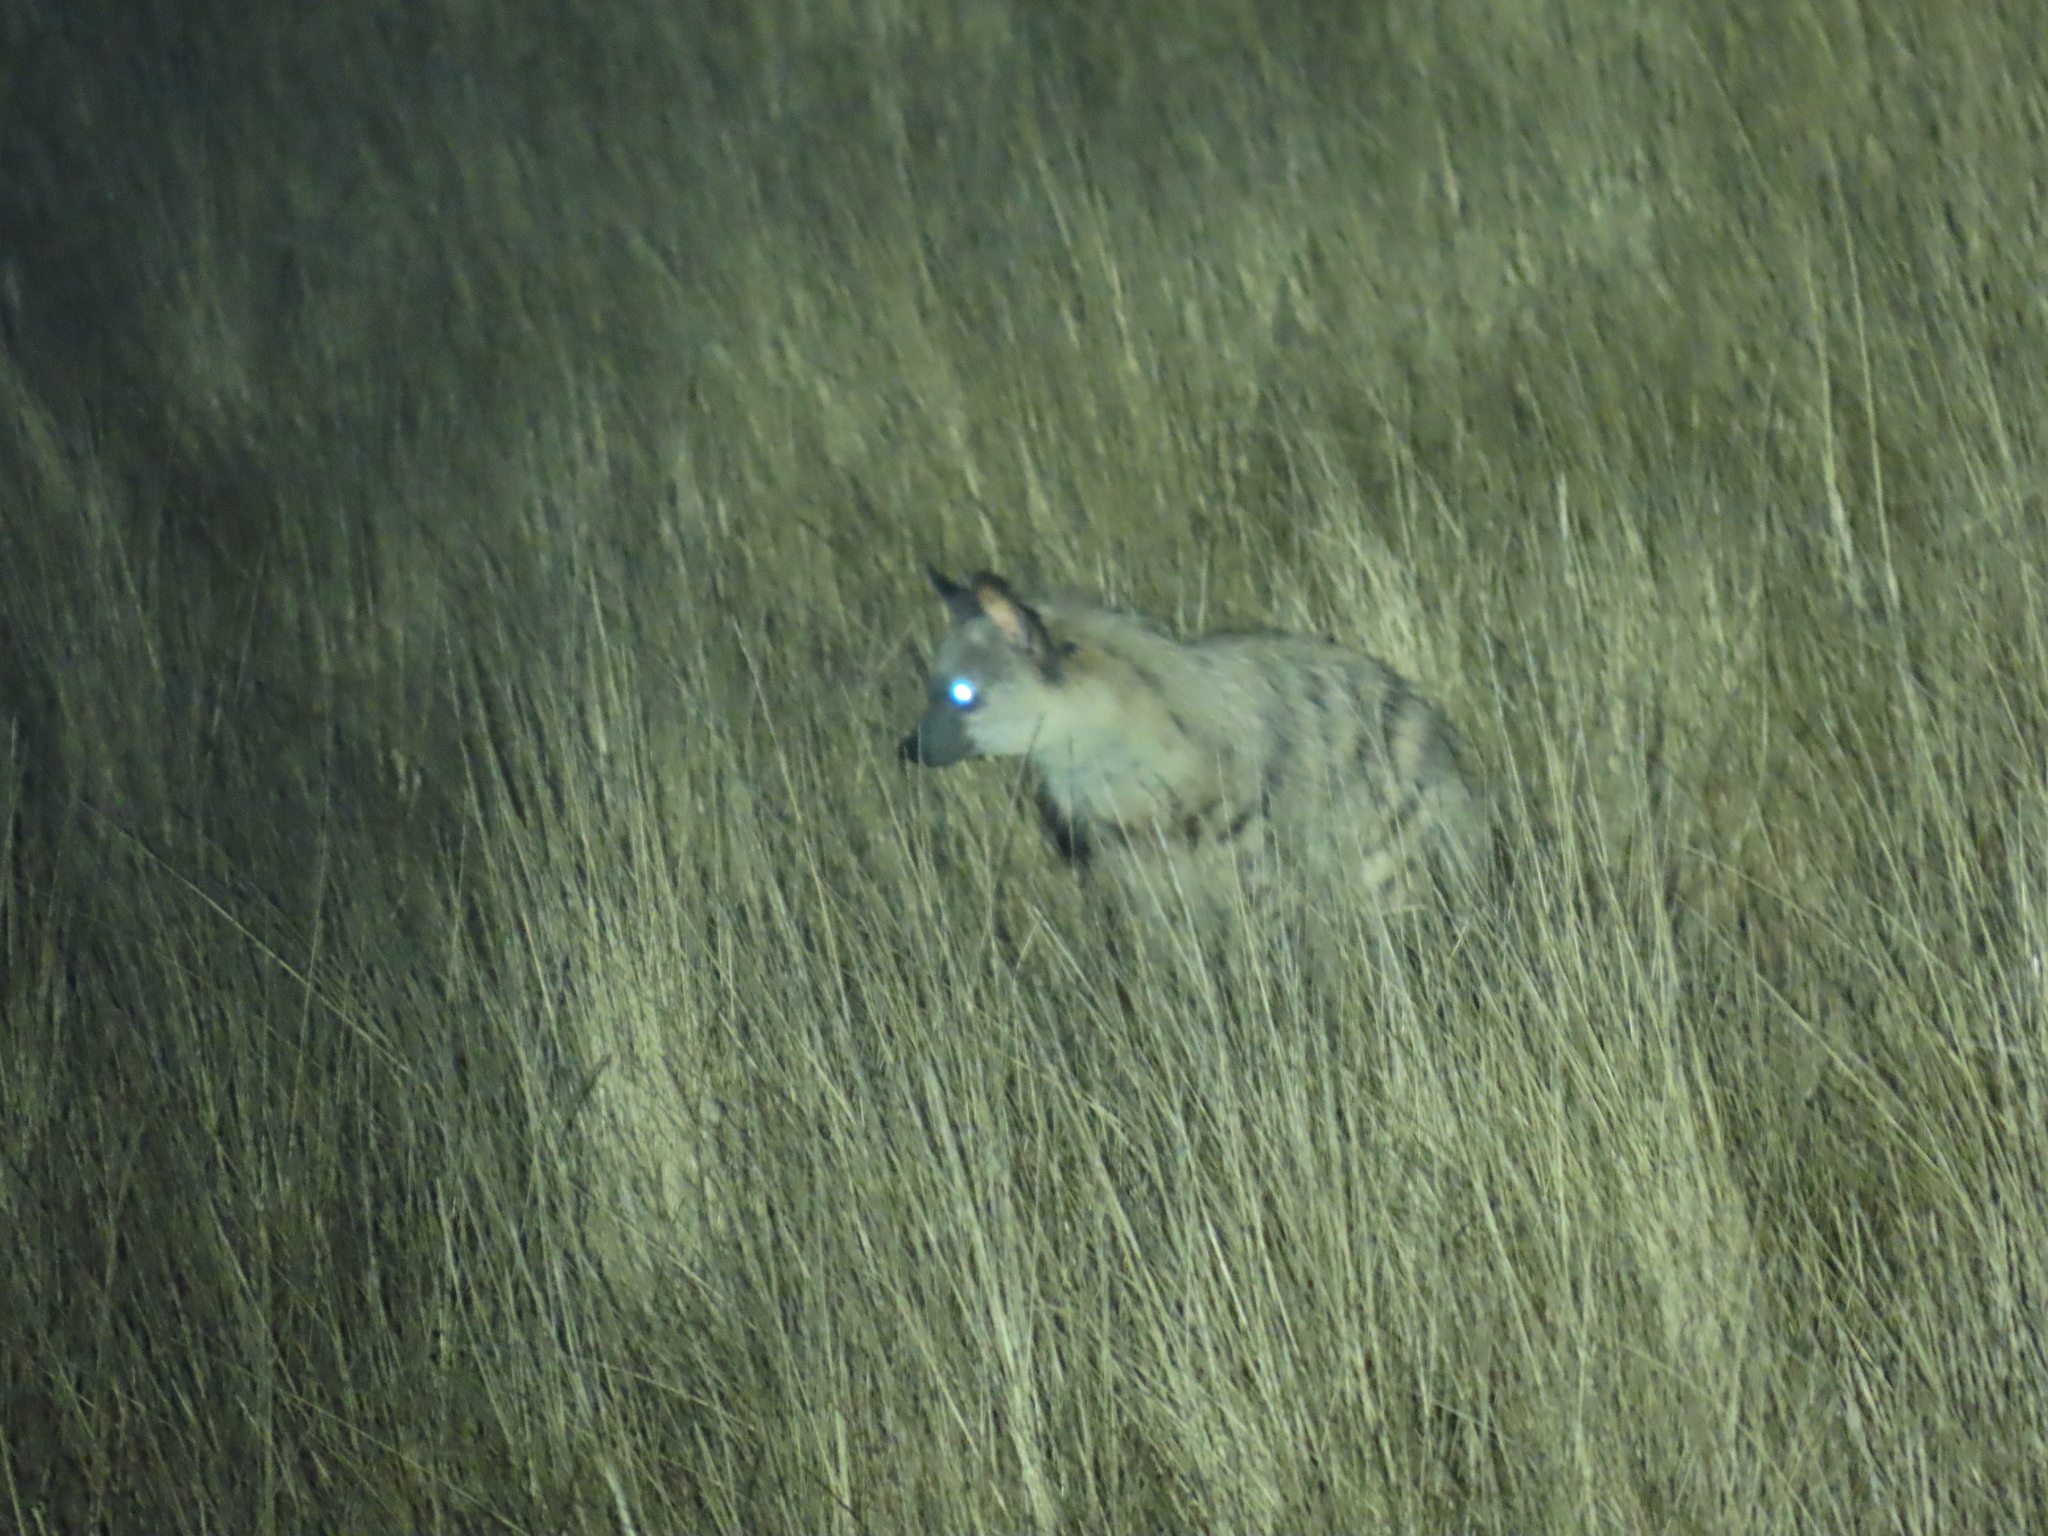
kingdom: Animalia
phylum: Chordata
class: Mammalia
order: Carnivora
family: Hyaenidae
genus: Proteles
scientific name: Proteles cristata
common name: Aardwolf
